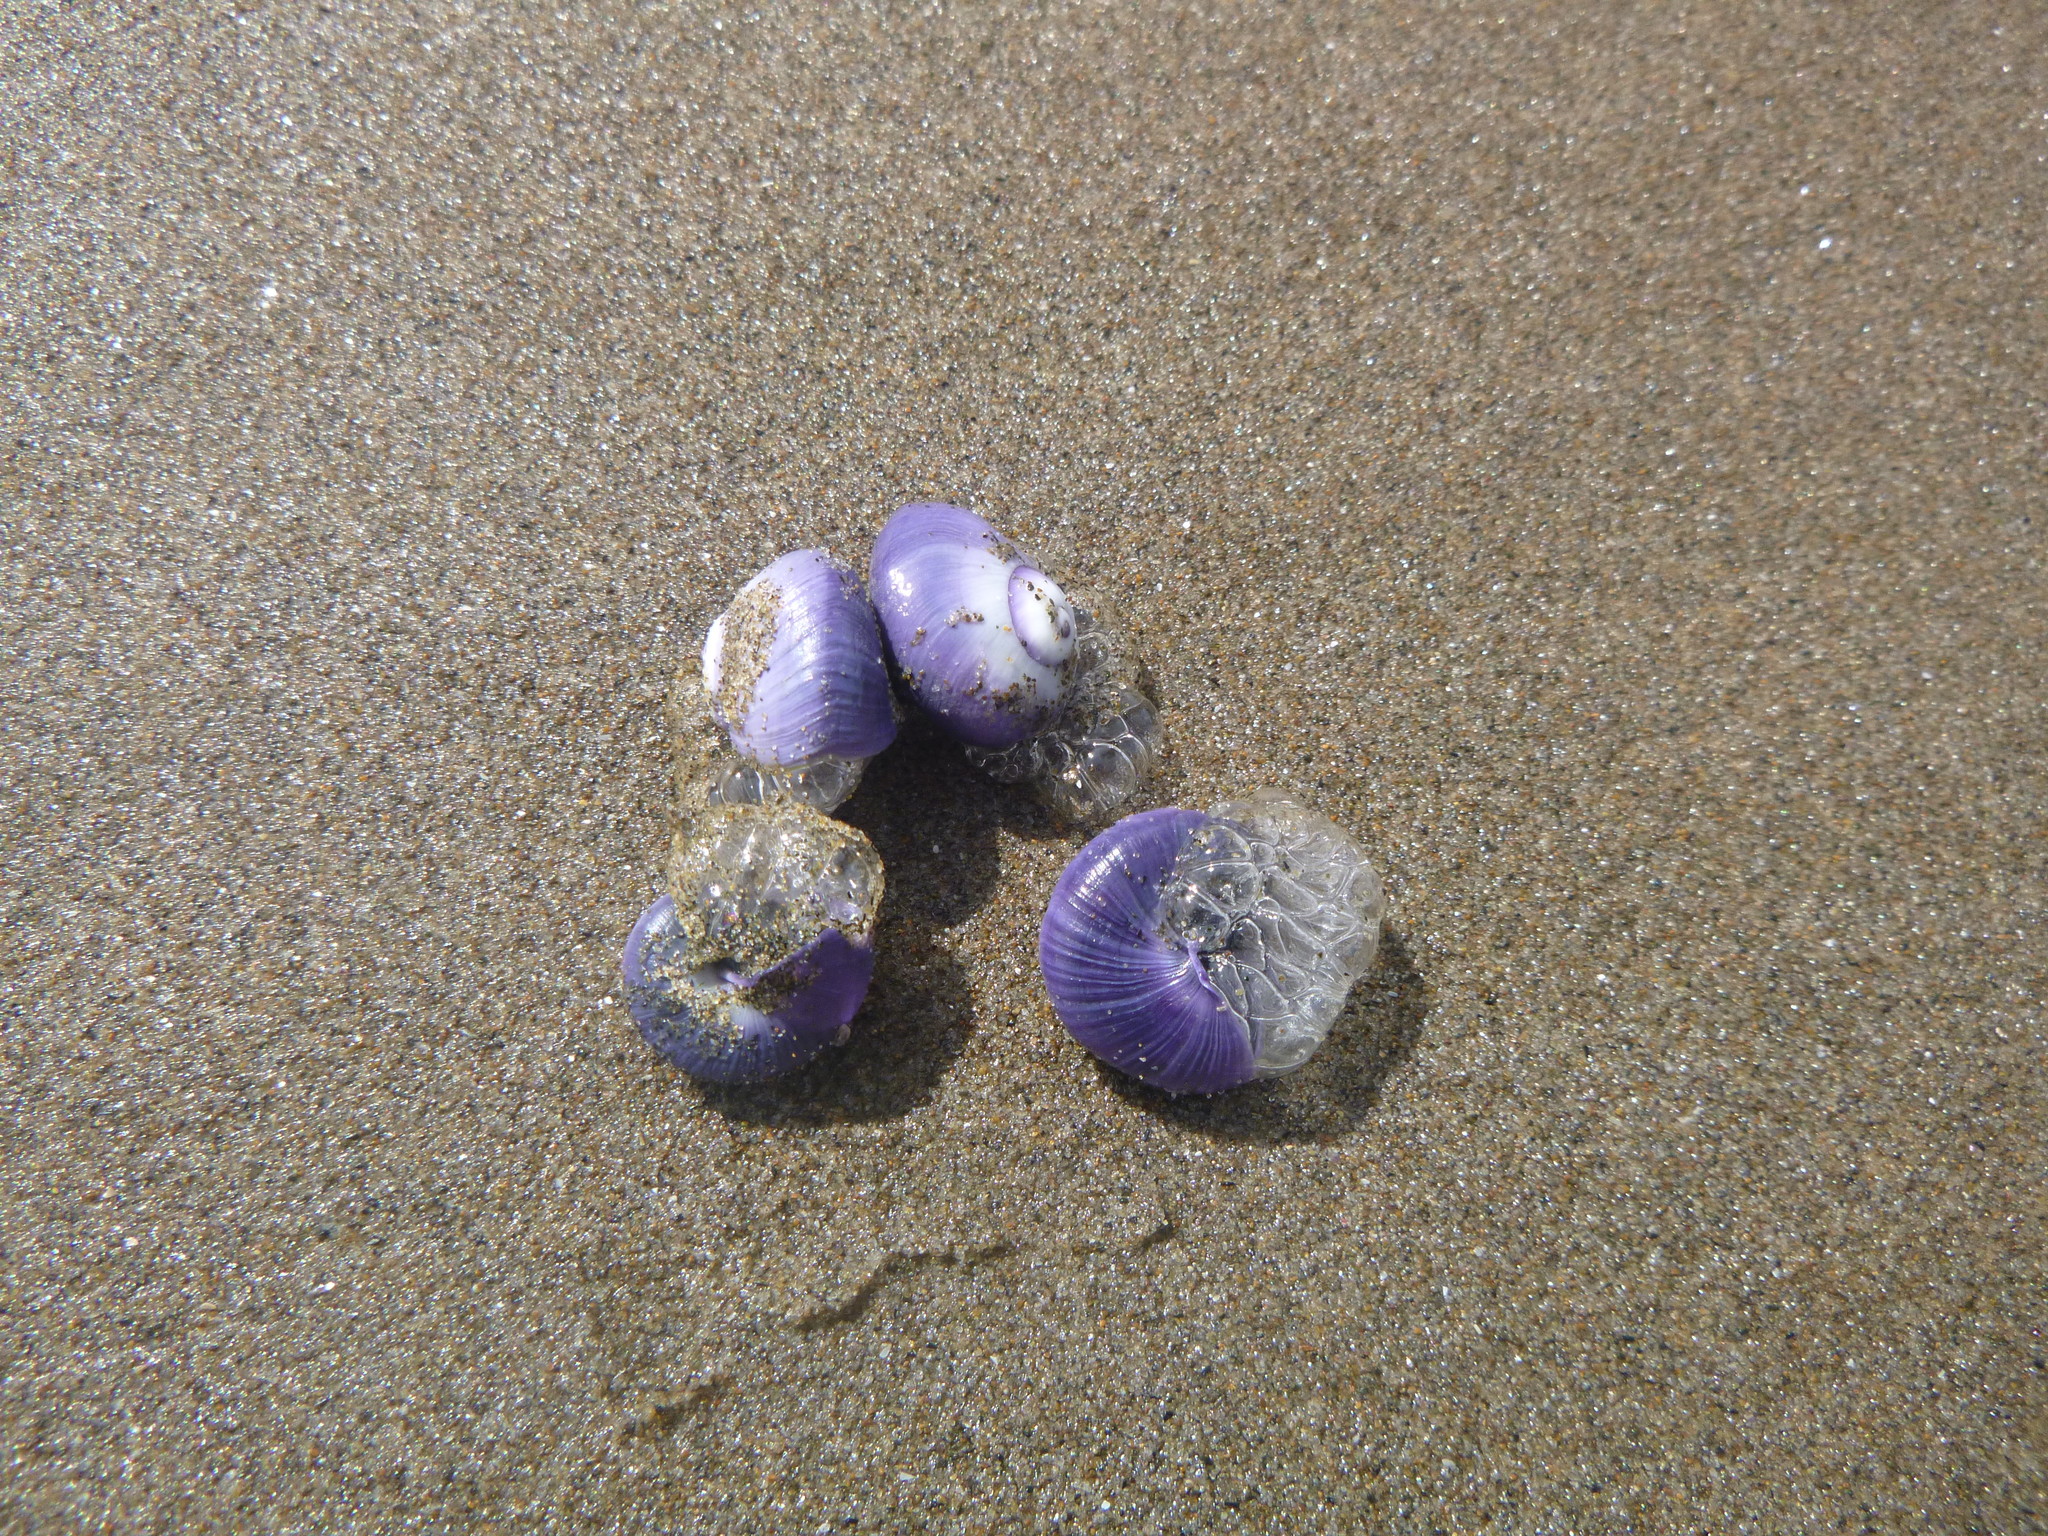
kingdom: Animalia
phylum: Mollusca
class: Gastropoda
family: Epitoniidae
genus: Janthina
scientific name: Janthina janthina
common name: Common janthina
